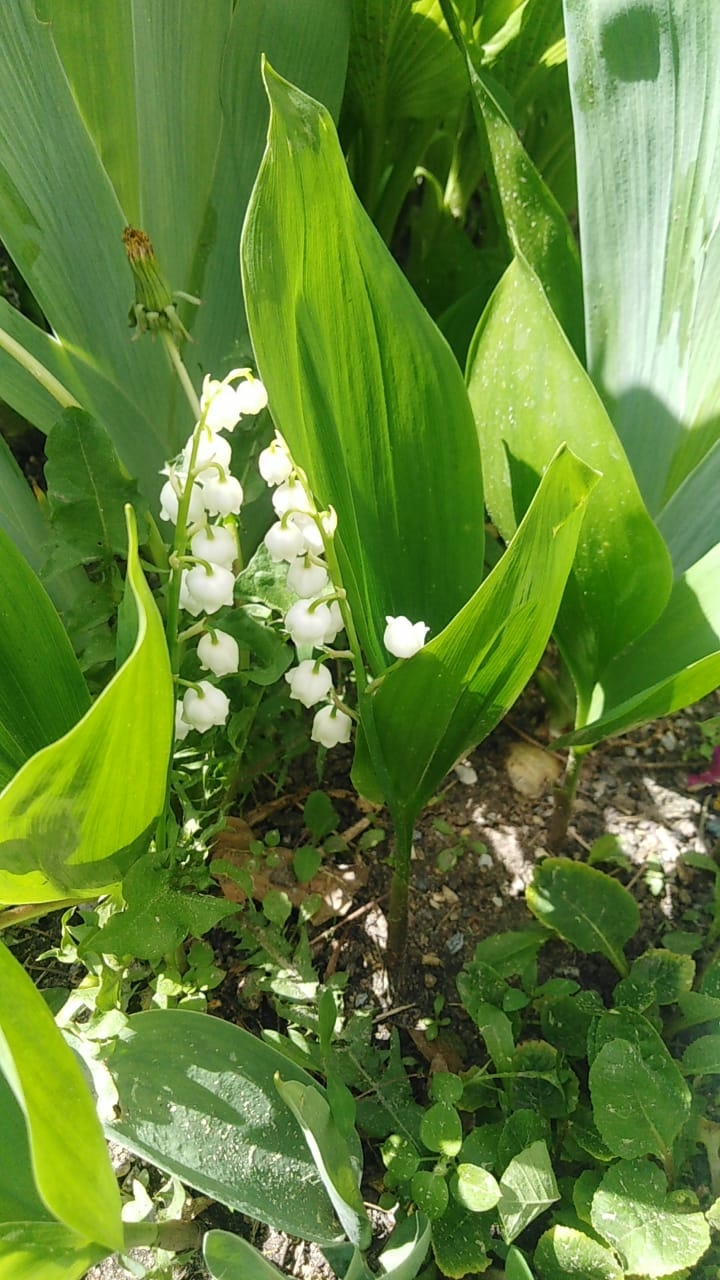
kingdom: Plantae
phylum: Tracheophyta
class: Liliopsida
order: Asparagales
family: Asparagaceae
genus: Convallaria
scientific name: Convallaria majalis
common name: Lily-of-the-valley
